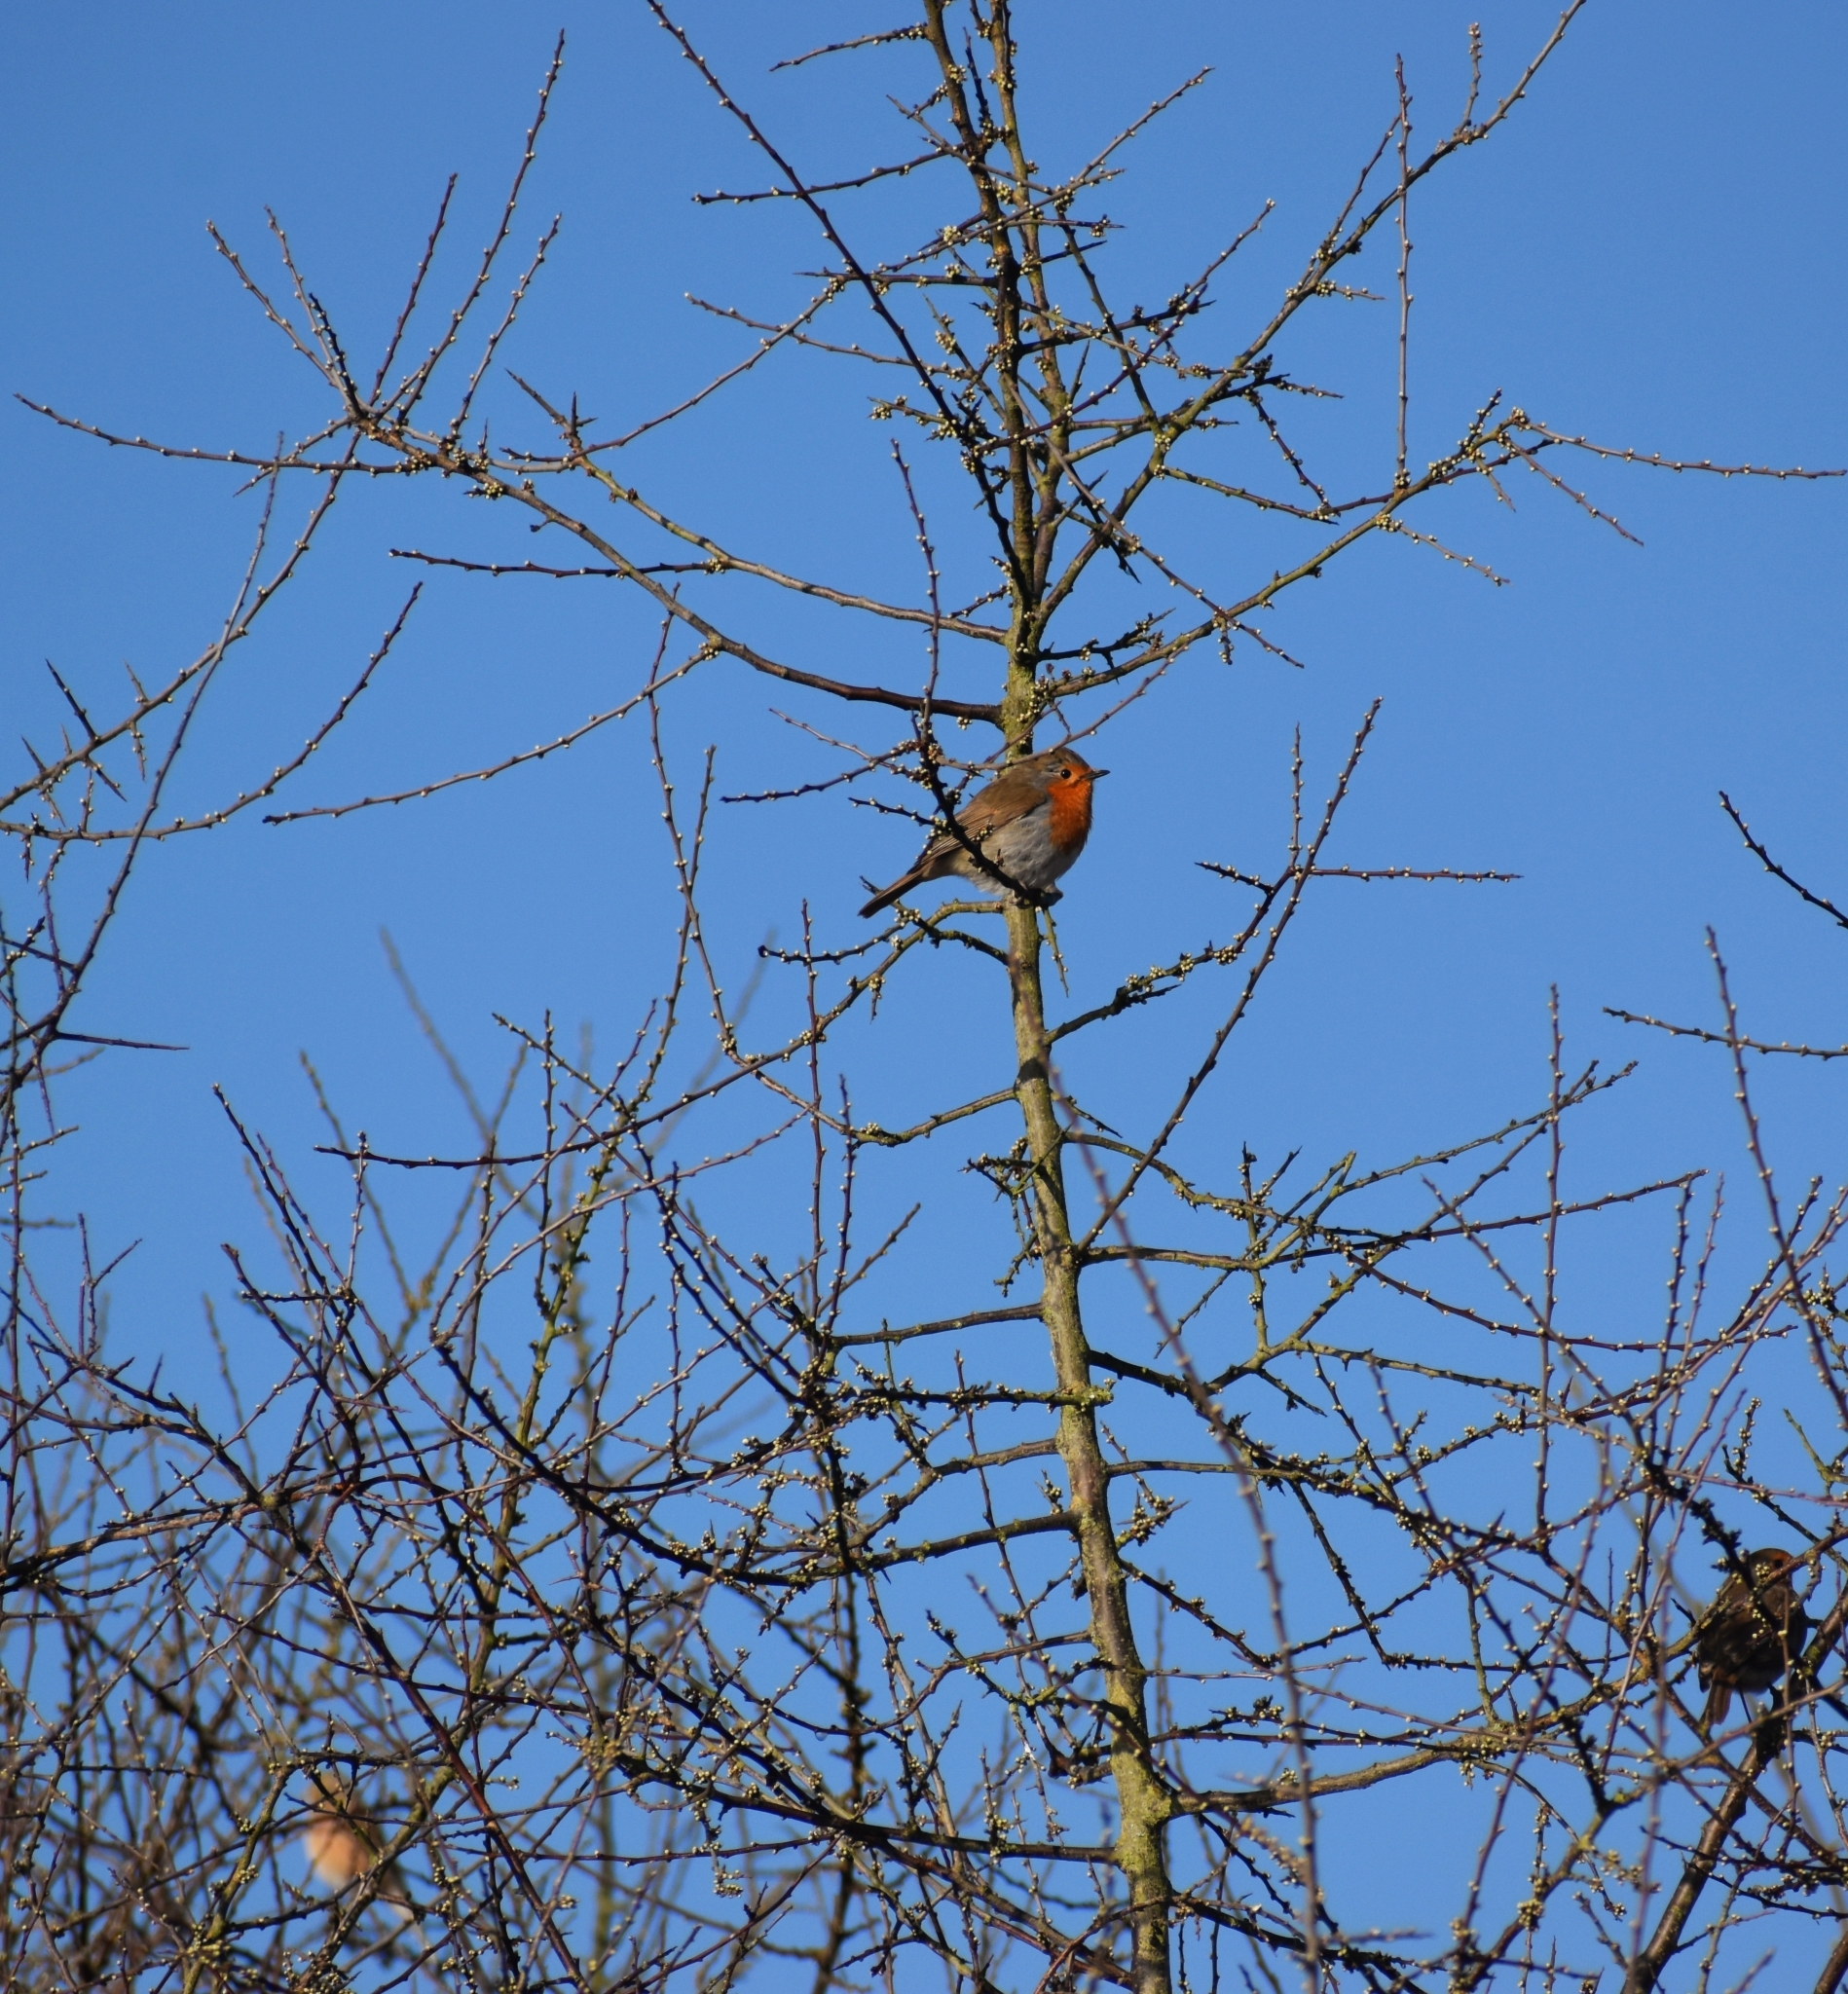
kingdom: Animalia
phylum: Chordata
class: Aves
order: Passeriformes
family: Muscicapidae
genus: Erithacus
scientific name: Erithacus rubecula
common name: European robin
